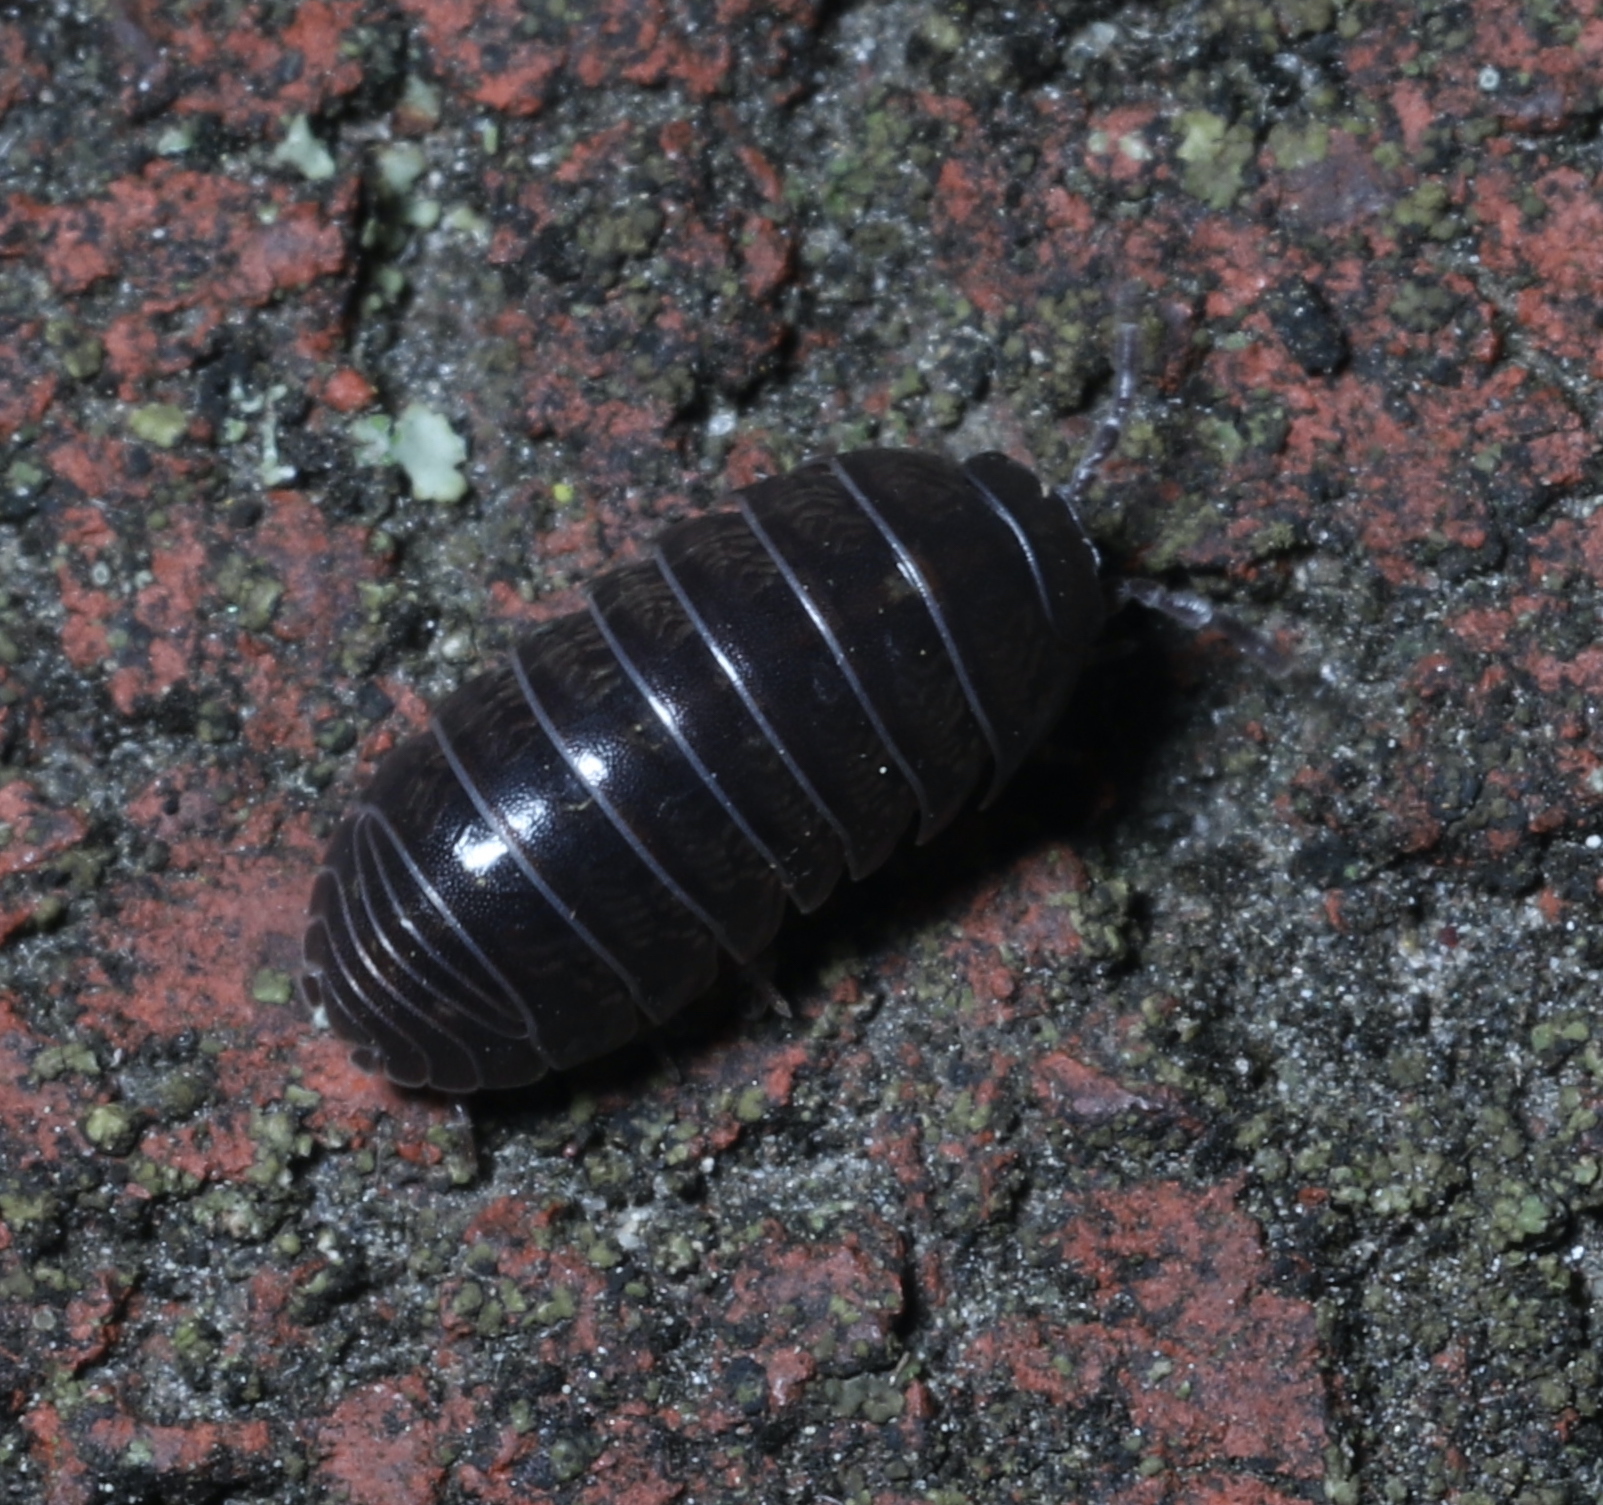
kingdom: Animalia
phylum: Arthropoda
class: Malacostraca
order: Isopoda
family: Armadillidiidae
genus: Armadillidium
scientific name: Armadillidium vulgare
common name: Common pill woodlouse
